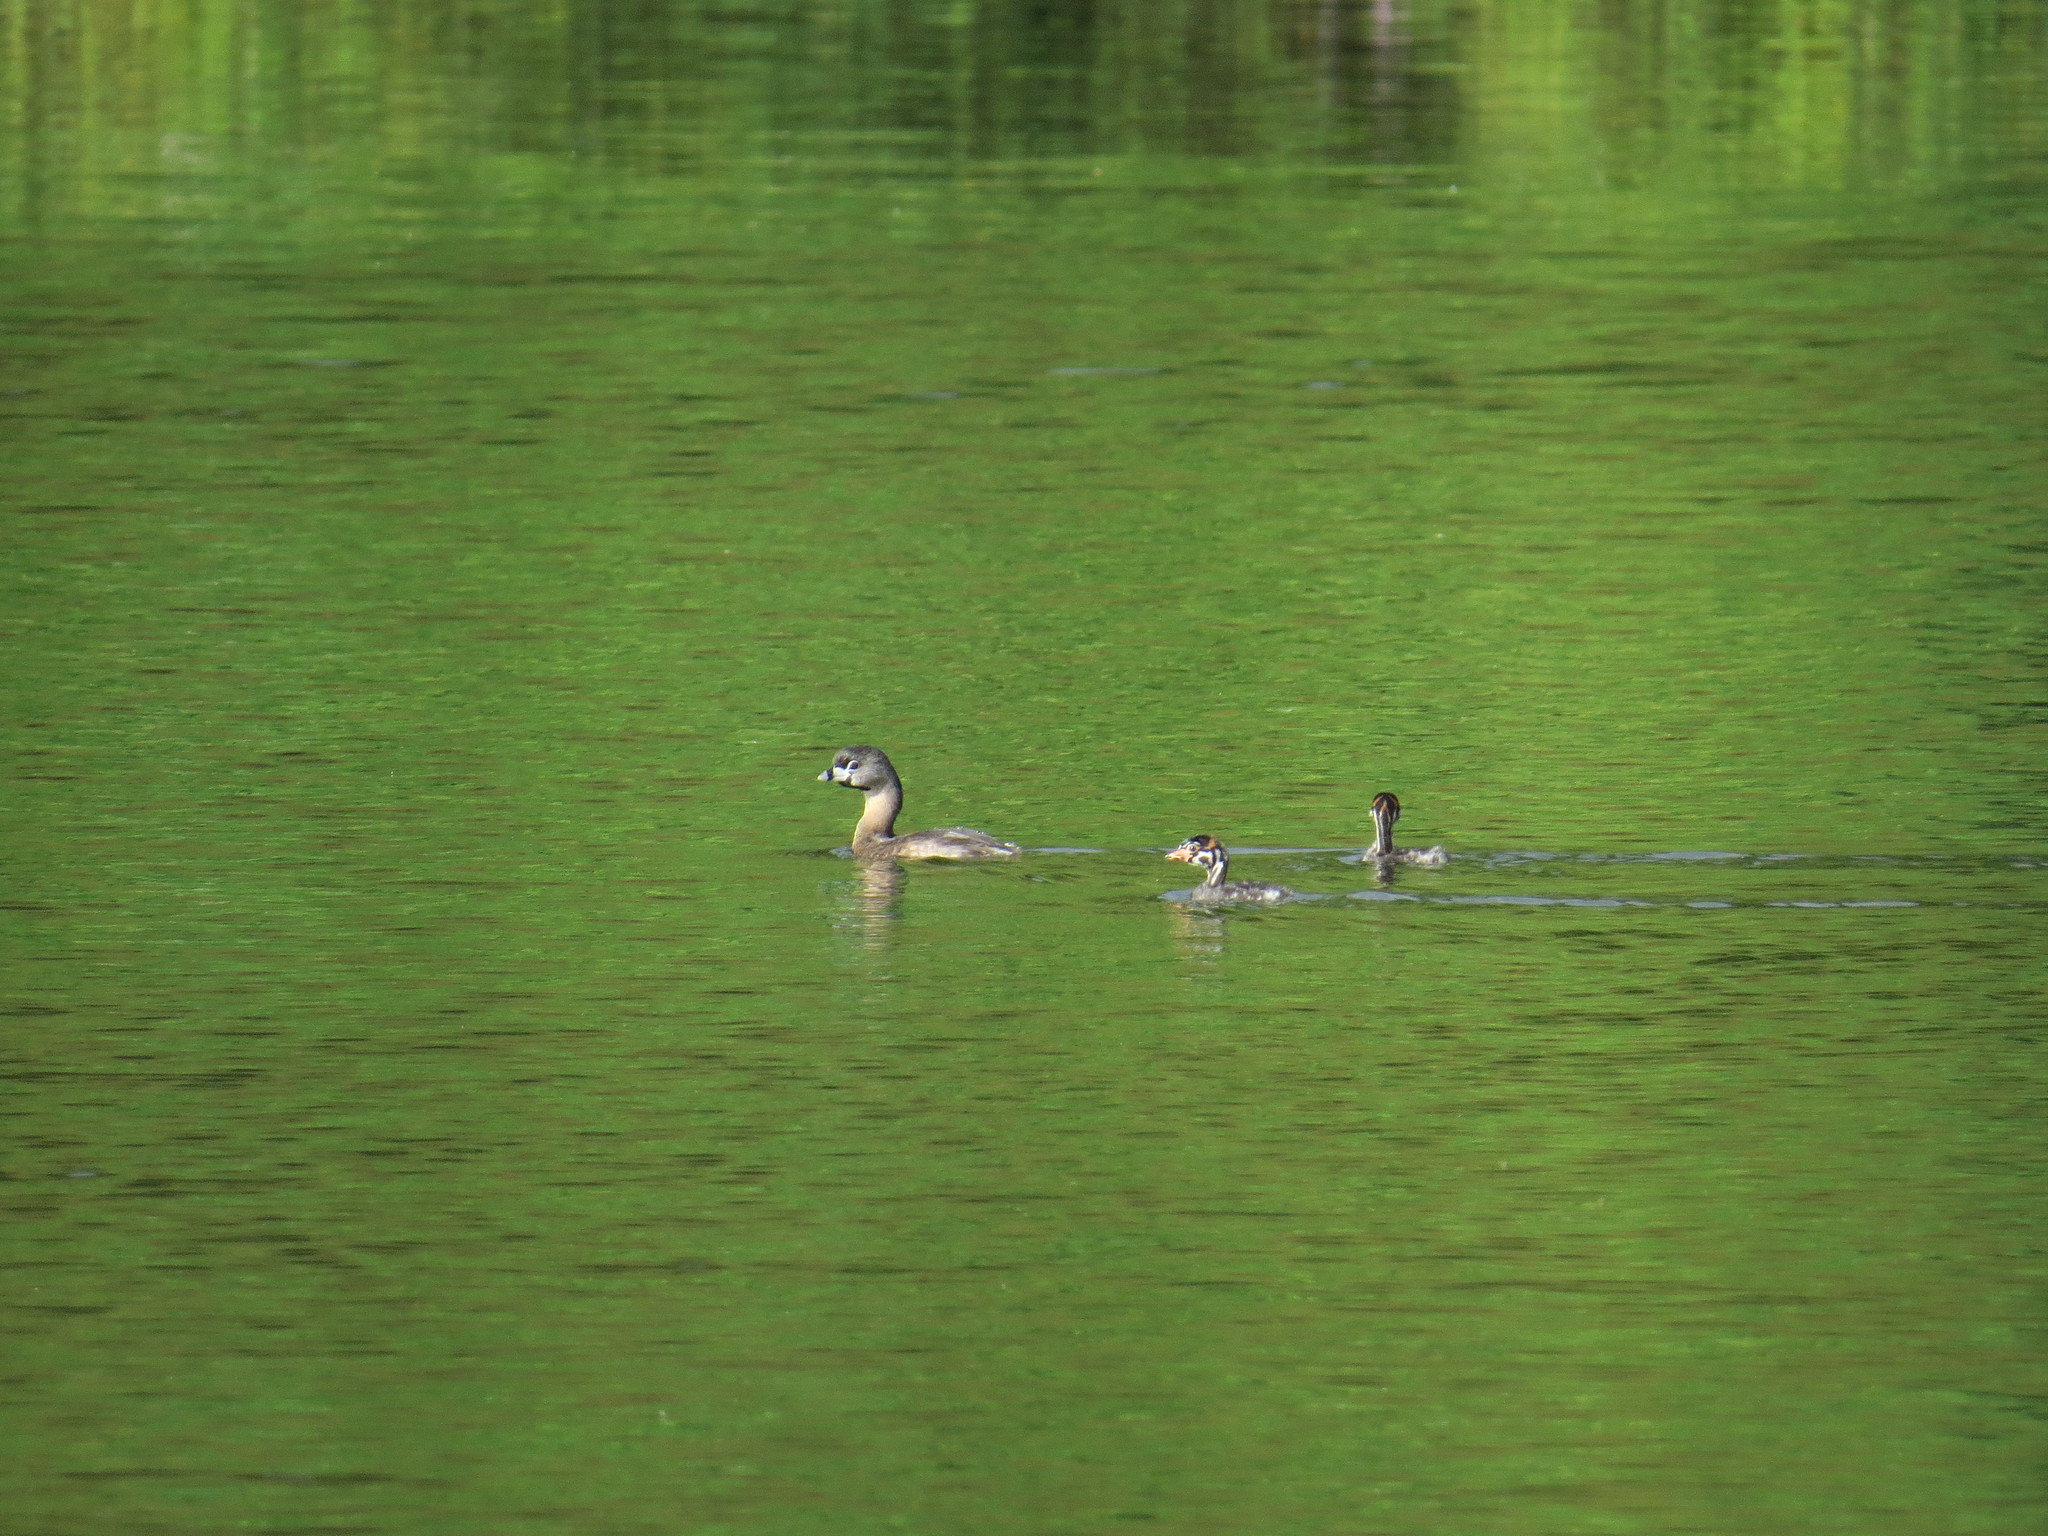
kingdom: Animalia
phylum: Chordata
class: Aves
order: Podicipediformes
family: Podicipedidae
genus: Podilymbus
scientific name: Podilymbus podiceps
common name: Pied-billed grebe
